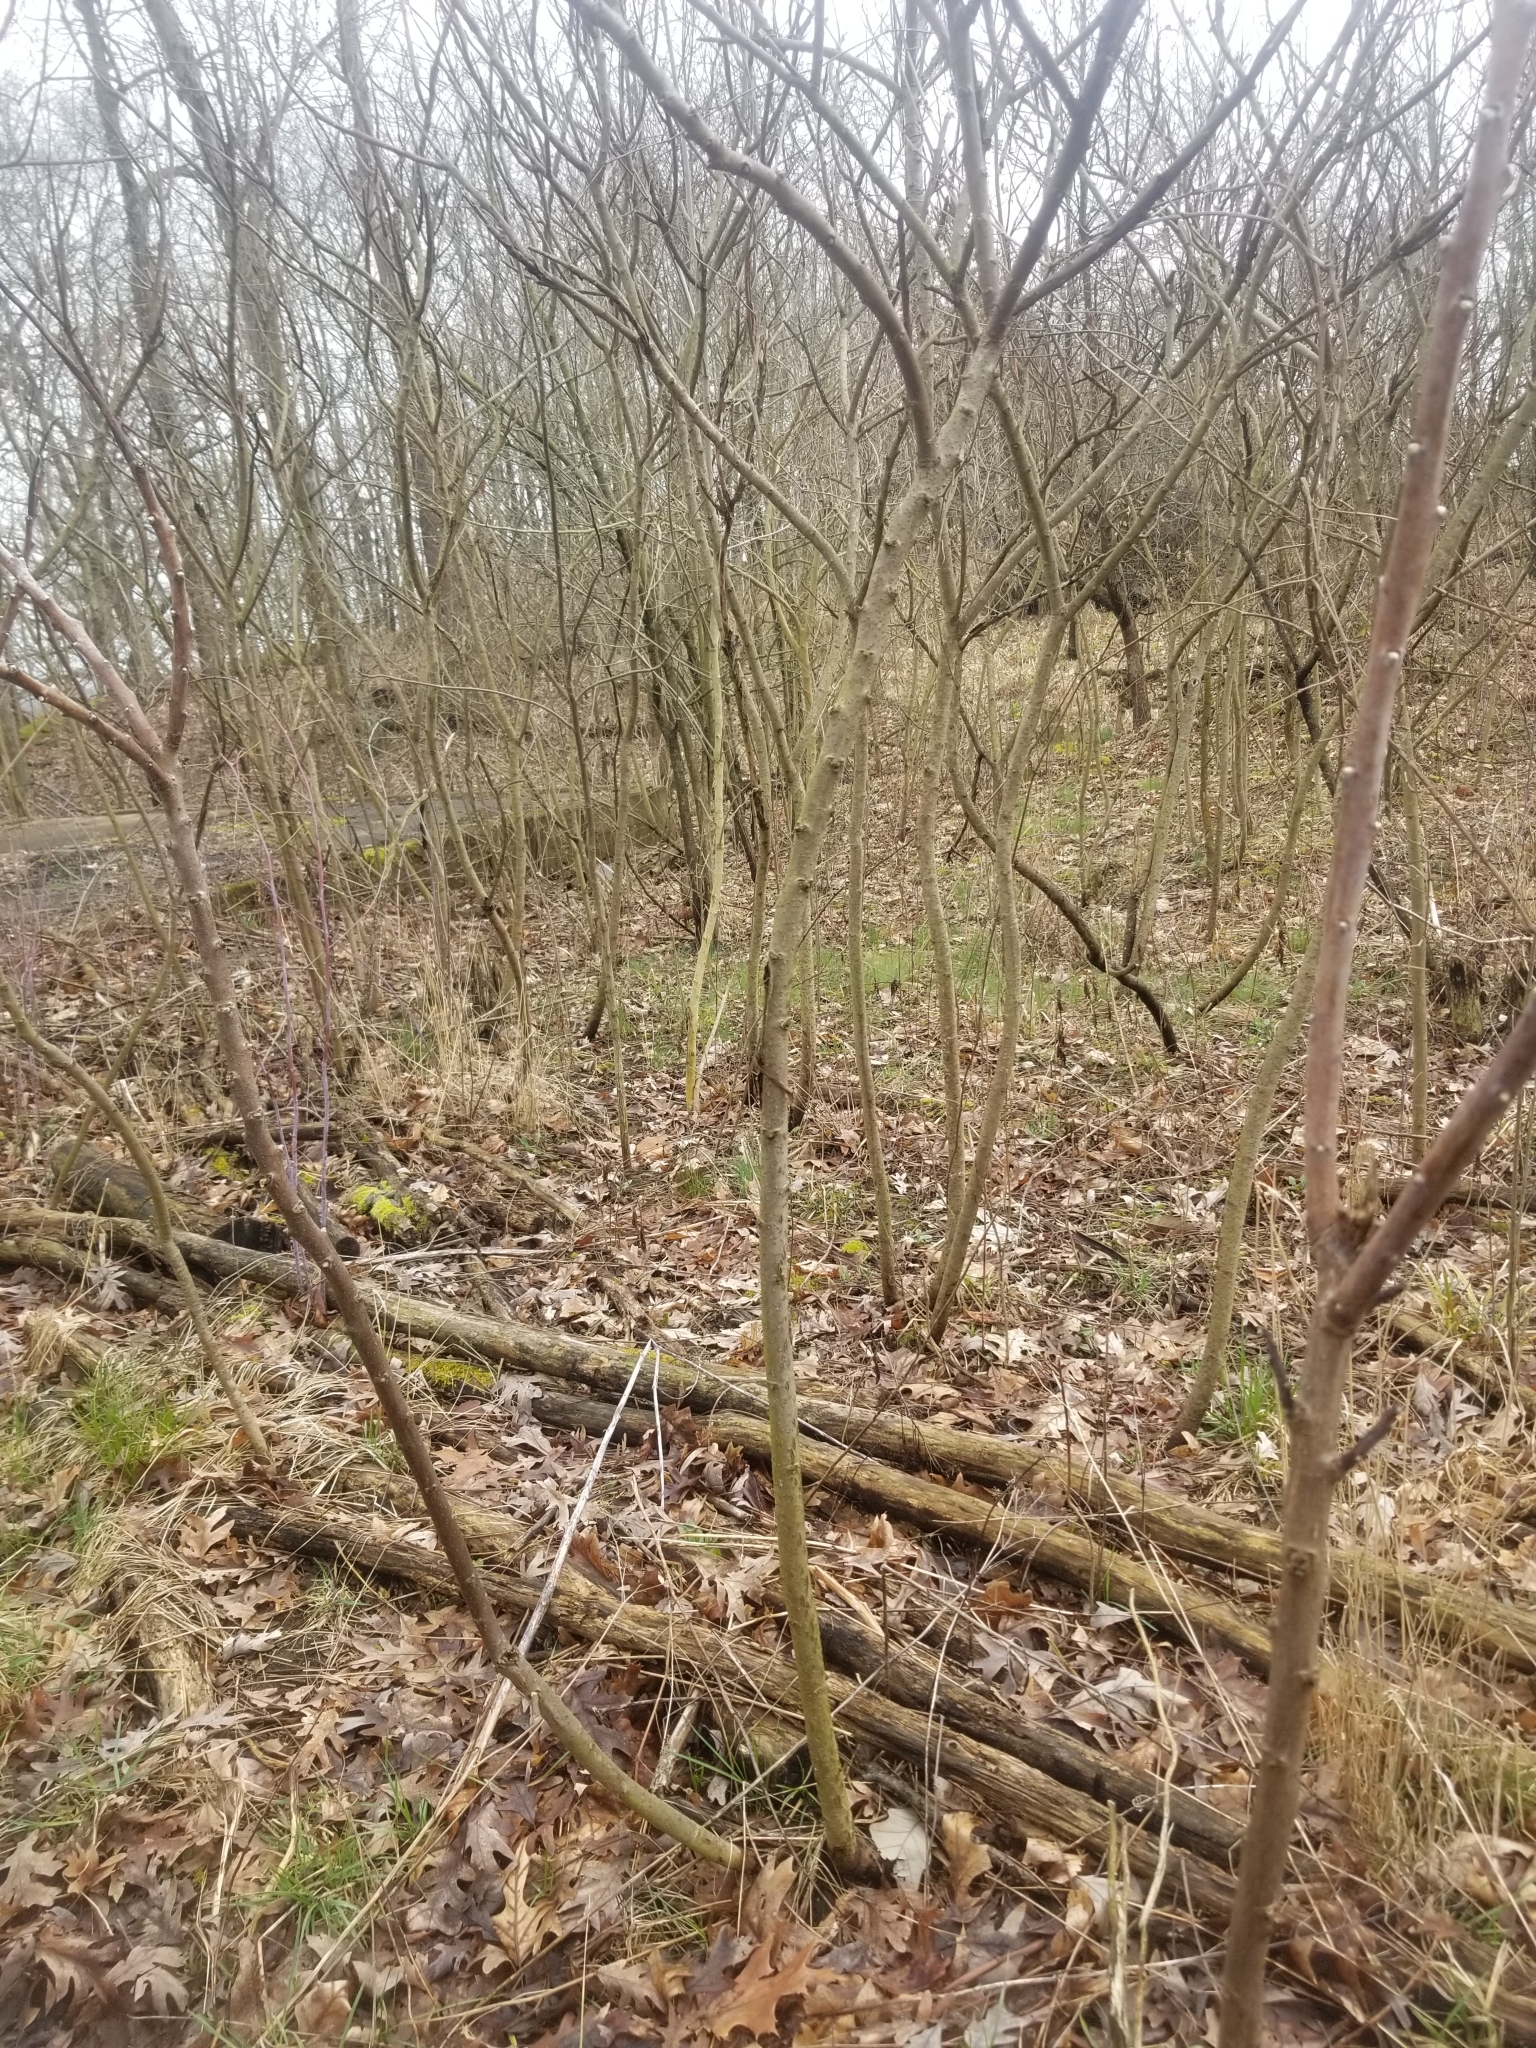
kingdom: Plantae
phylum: Tracheophyta
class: Magnoliopsida
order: Sapindales
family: Anacardiaceae
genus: Rhus
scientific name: Rhus glabra
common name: Scarlet sumac
